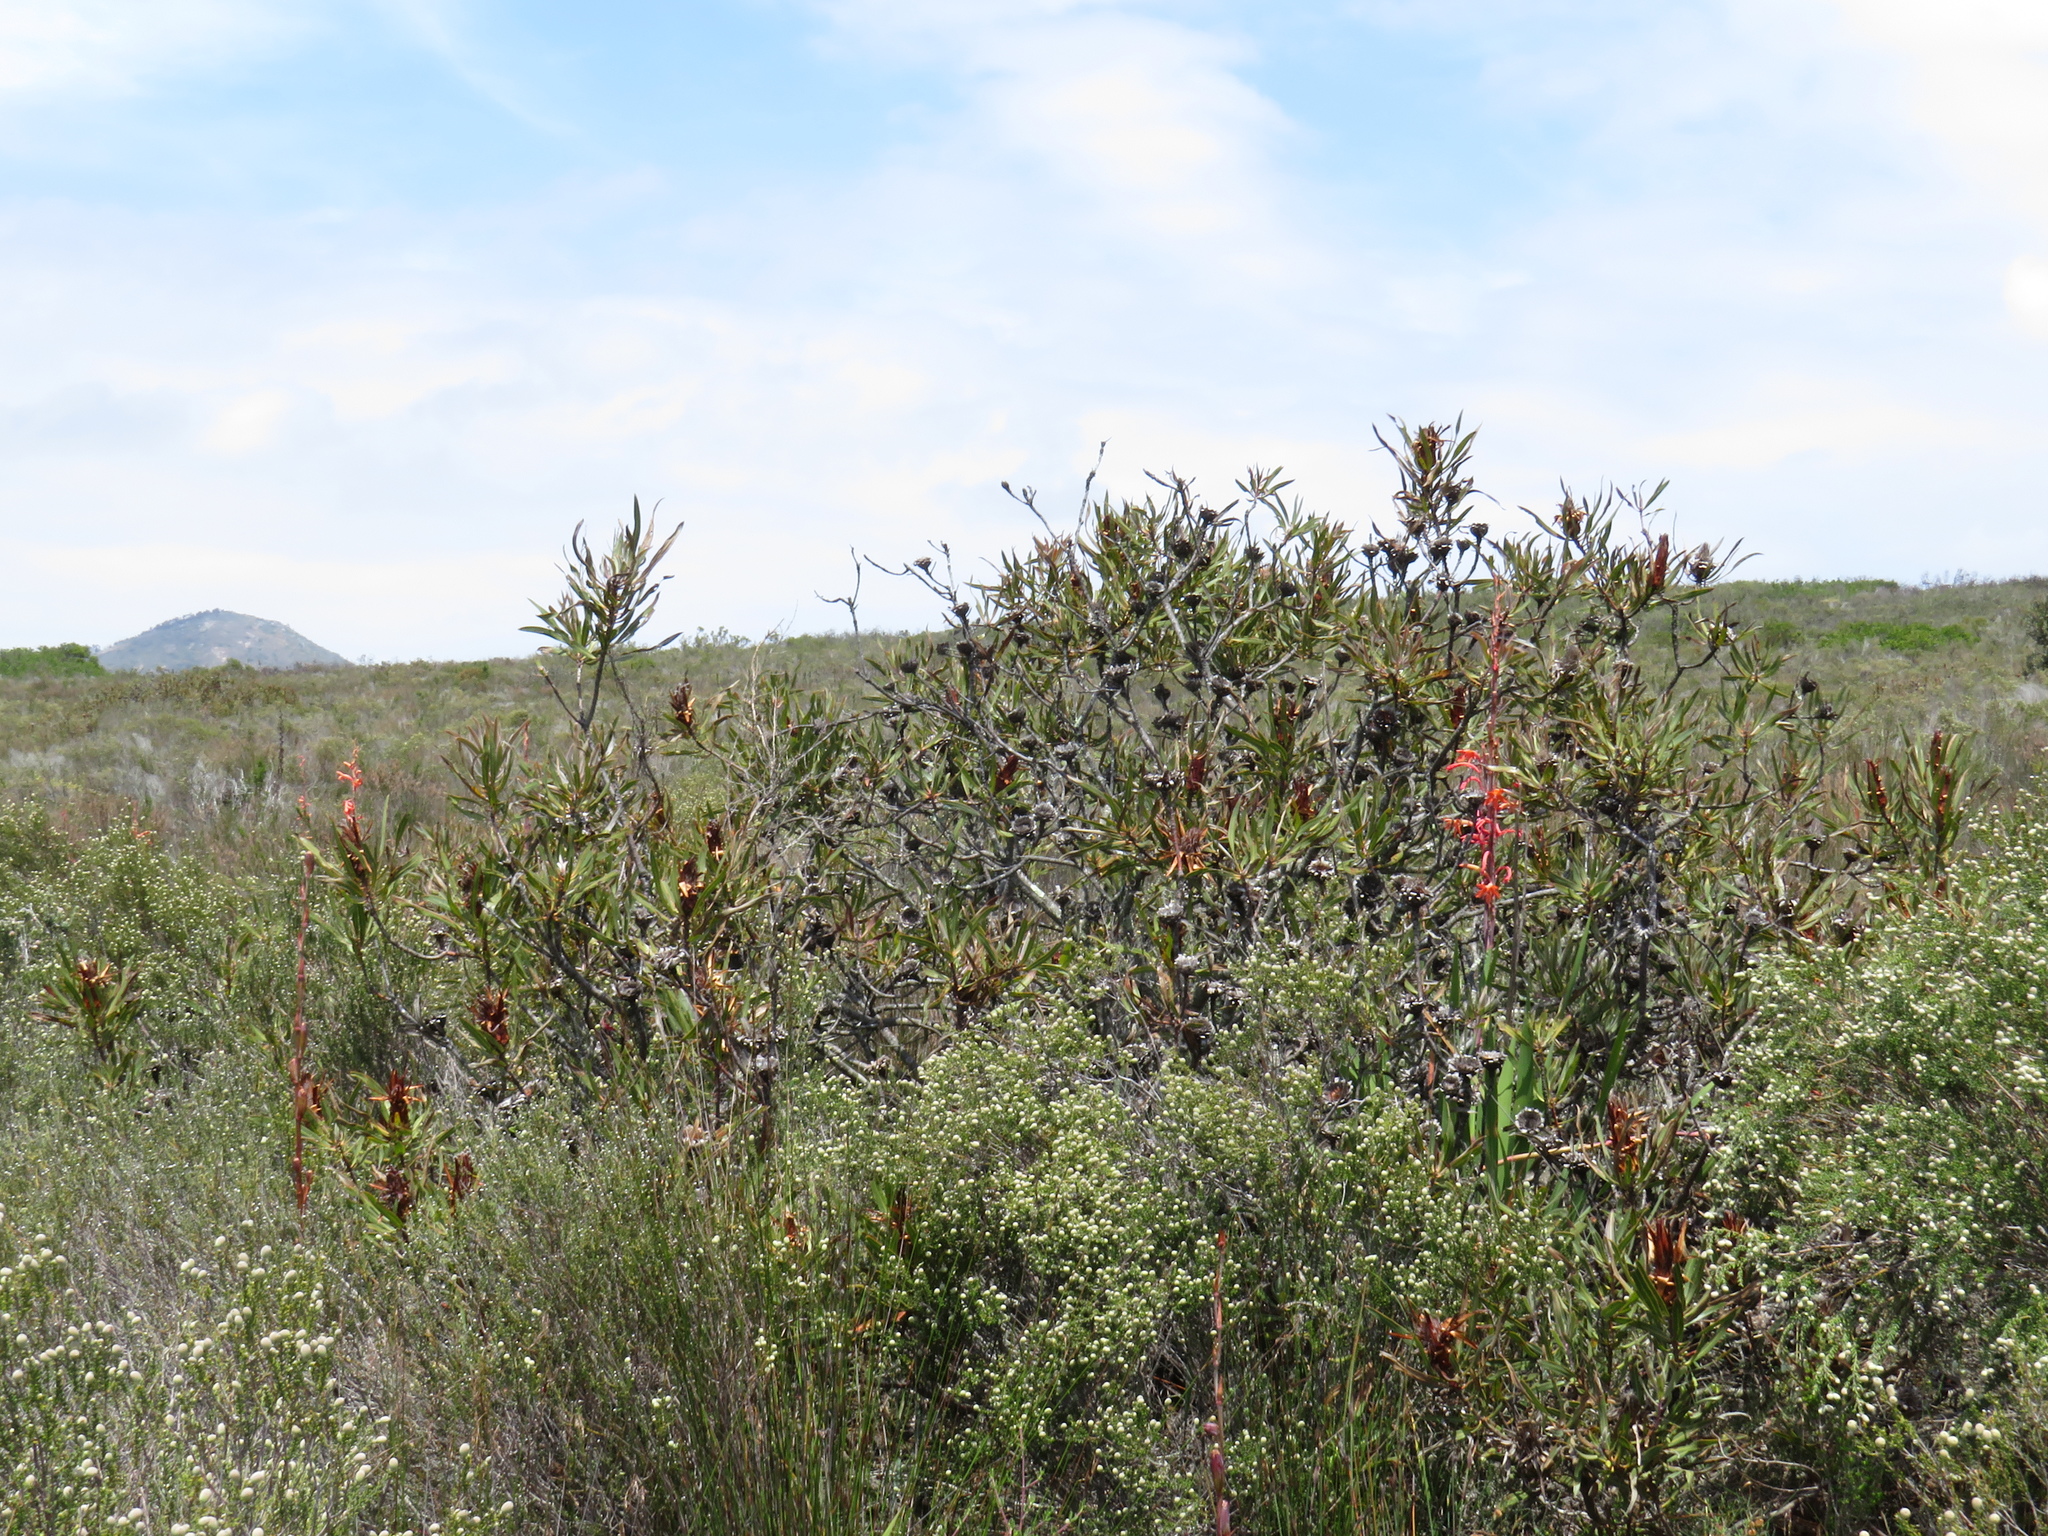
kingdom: Plantae
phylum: Tracheophyta
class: Magnoliopsida
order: Proteales
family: Proteaceae
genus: Protea
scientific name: Protea burchellii
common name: Burchell's sugarbush
